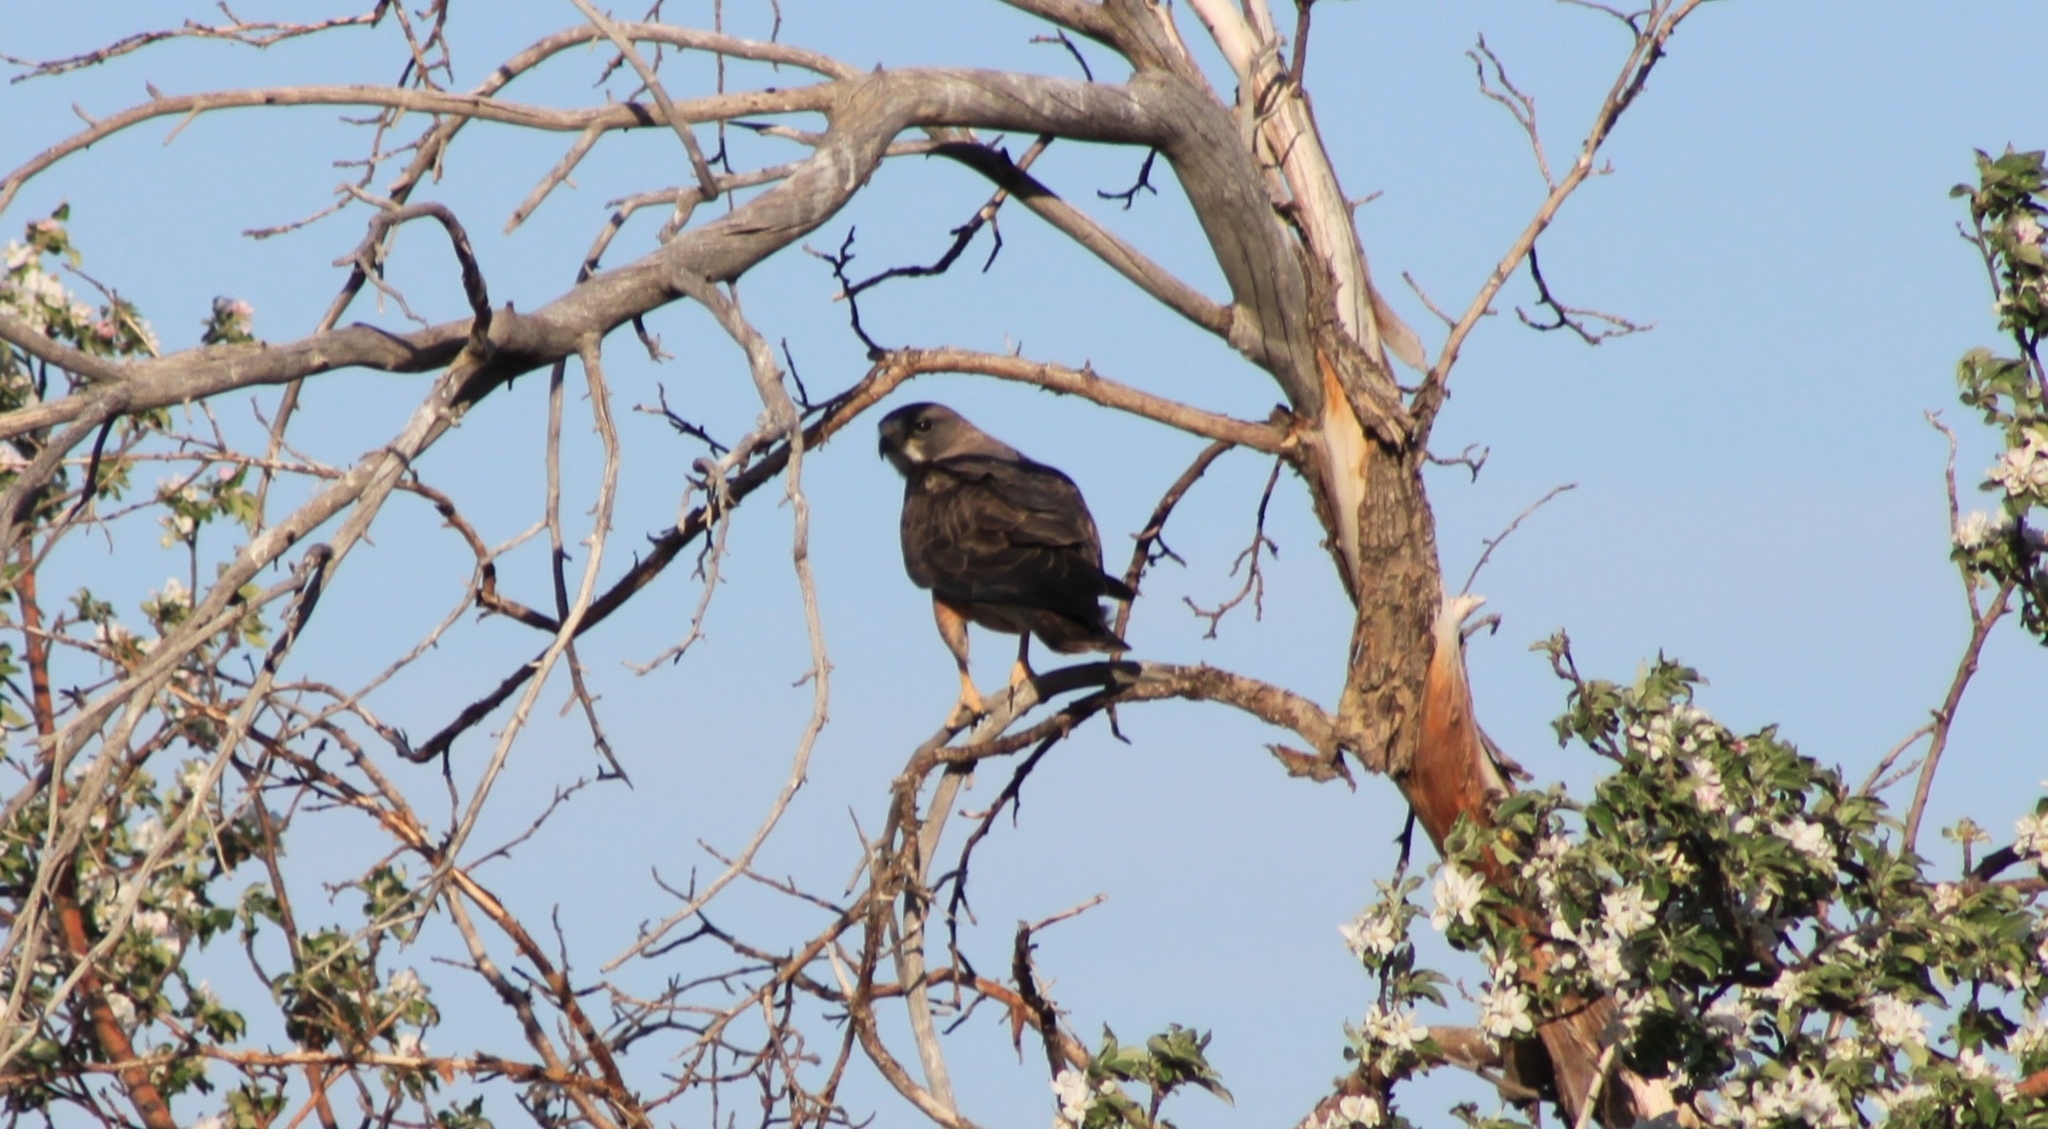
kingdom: Animalia
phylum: Chordata
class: Aves
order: Accipitriformes
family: Accipitridae
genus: Buteo
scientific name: Buteo swainsoni
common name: Swainson's hawk
